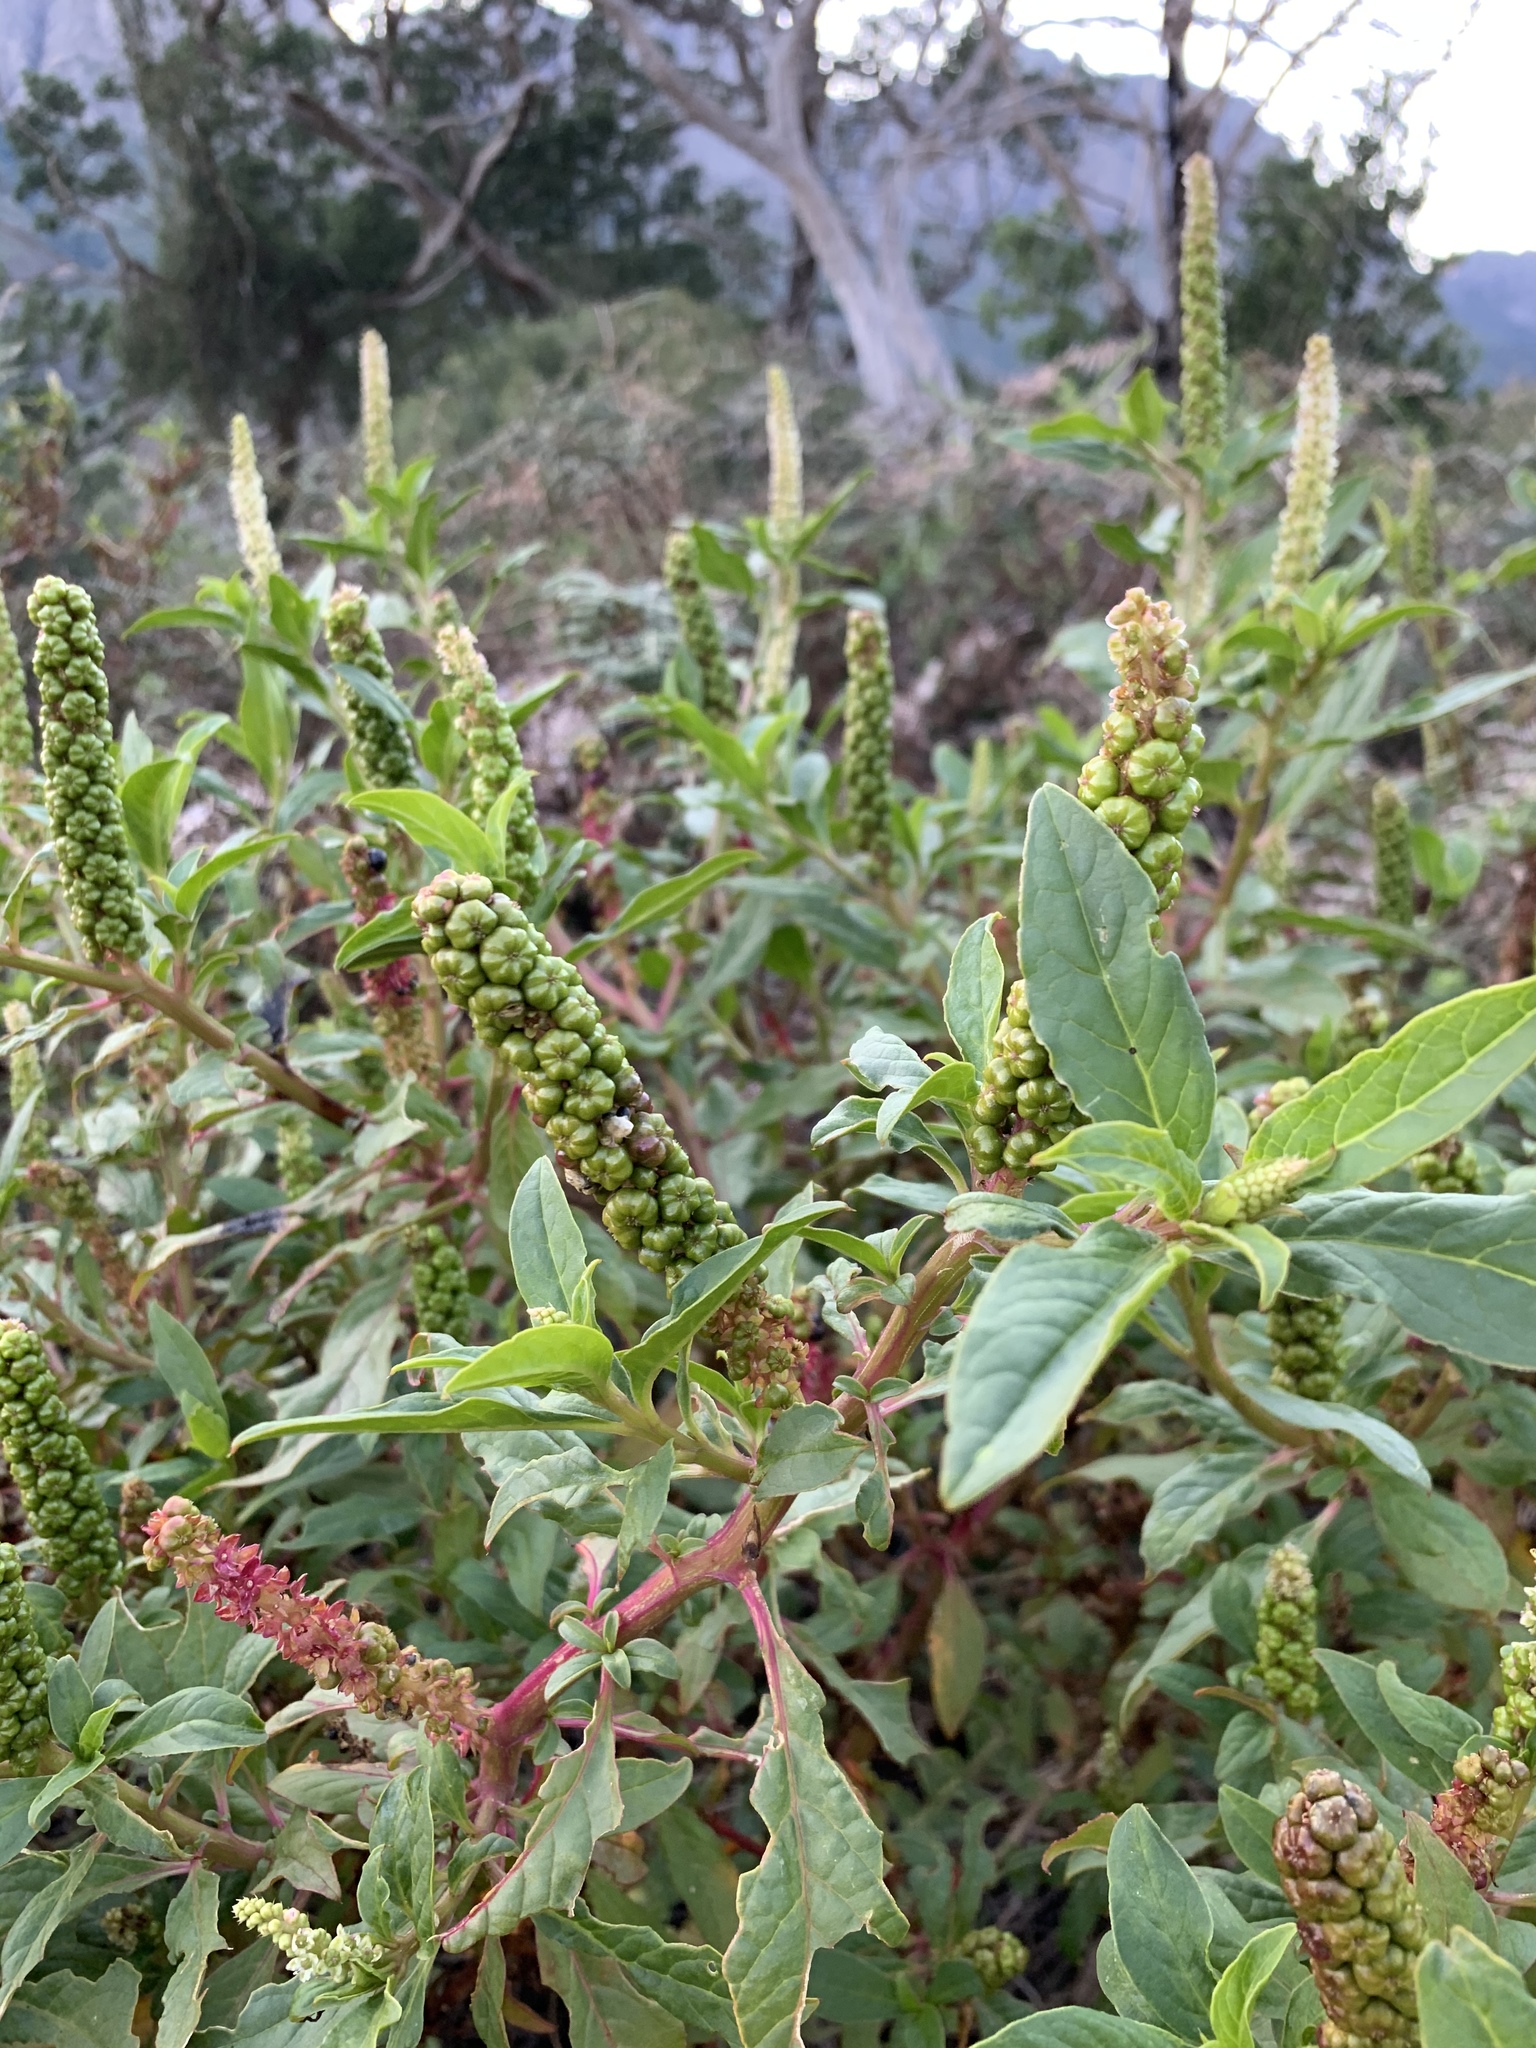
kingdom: Plantae
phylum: Tracheophyta
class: Magnoliopsida
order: Caryophyllales
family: Phytolaccaceae
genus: Phytolacca
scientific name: Phytolacca icosandra
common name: Button pokeweed
